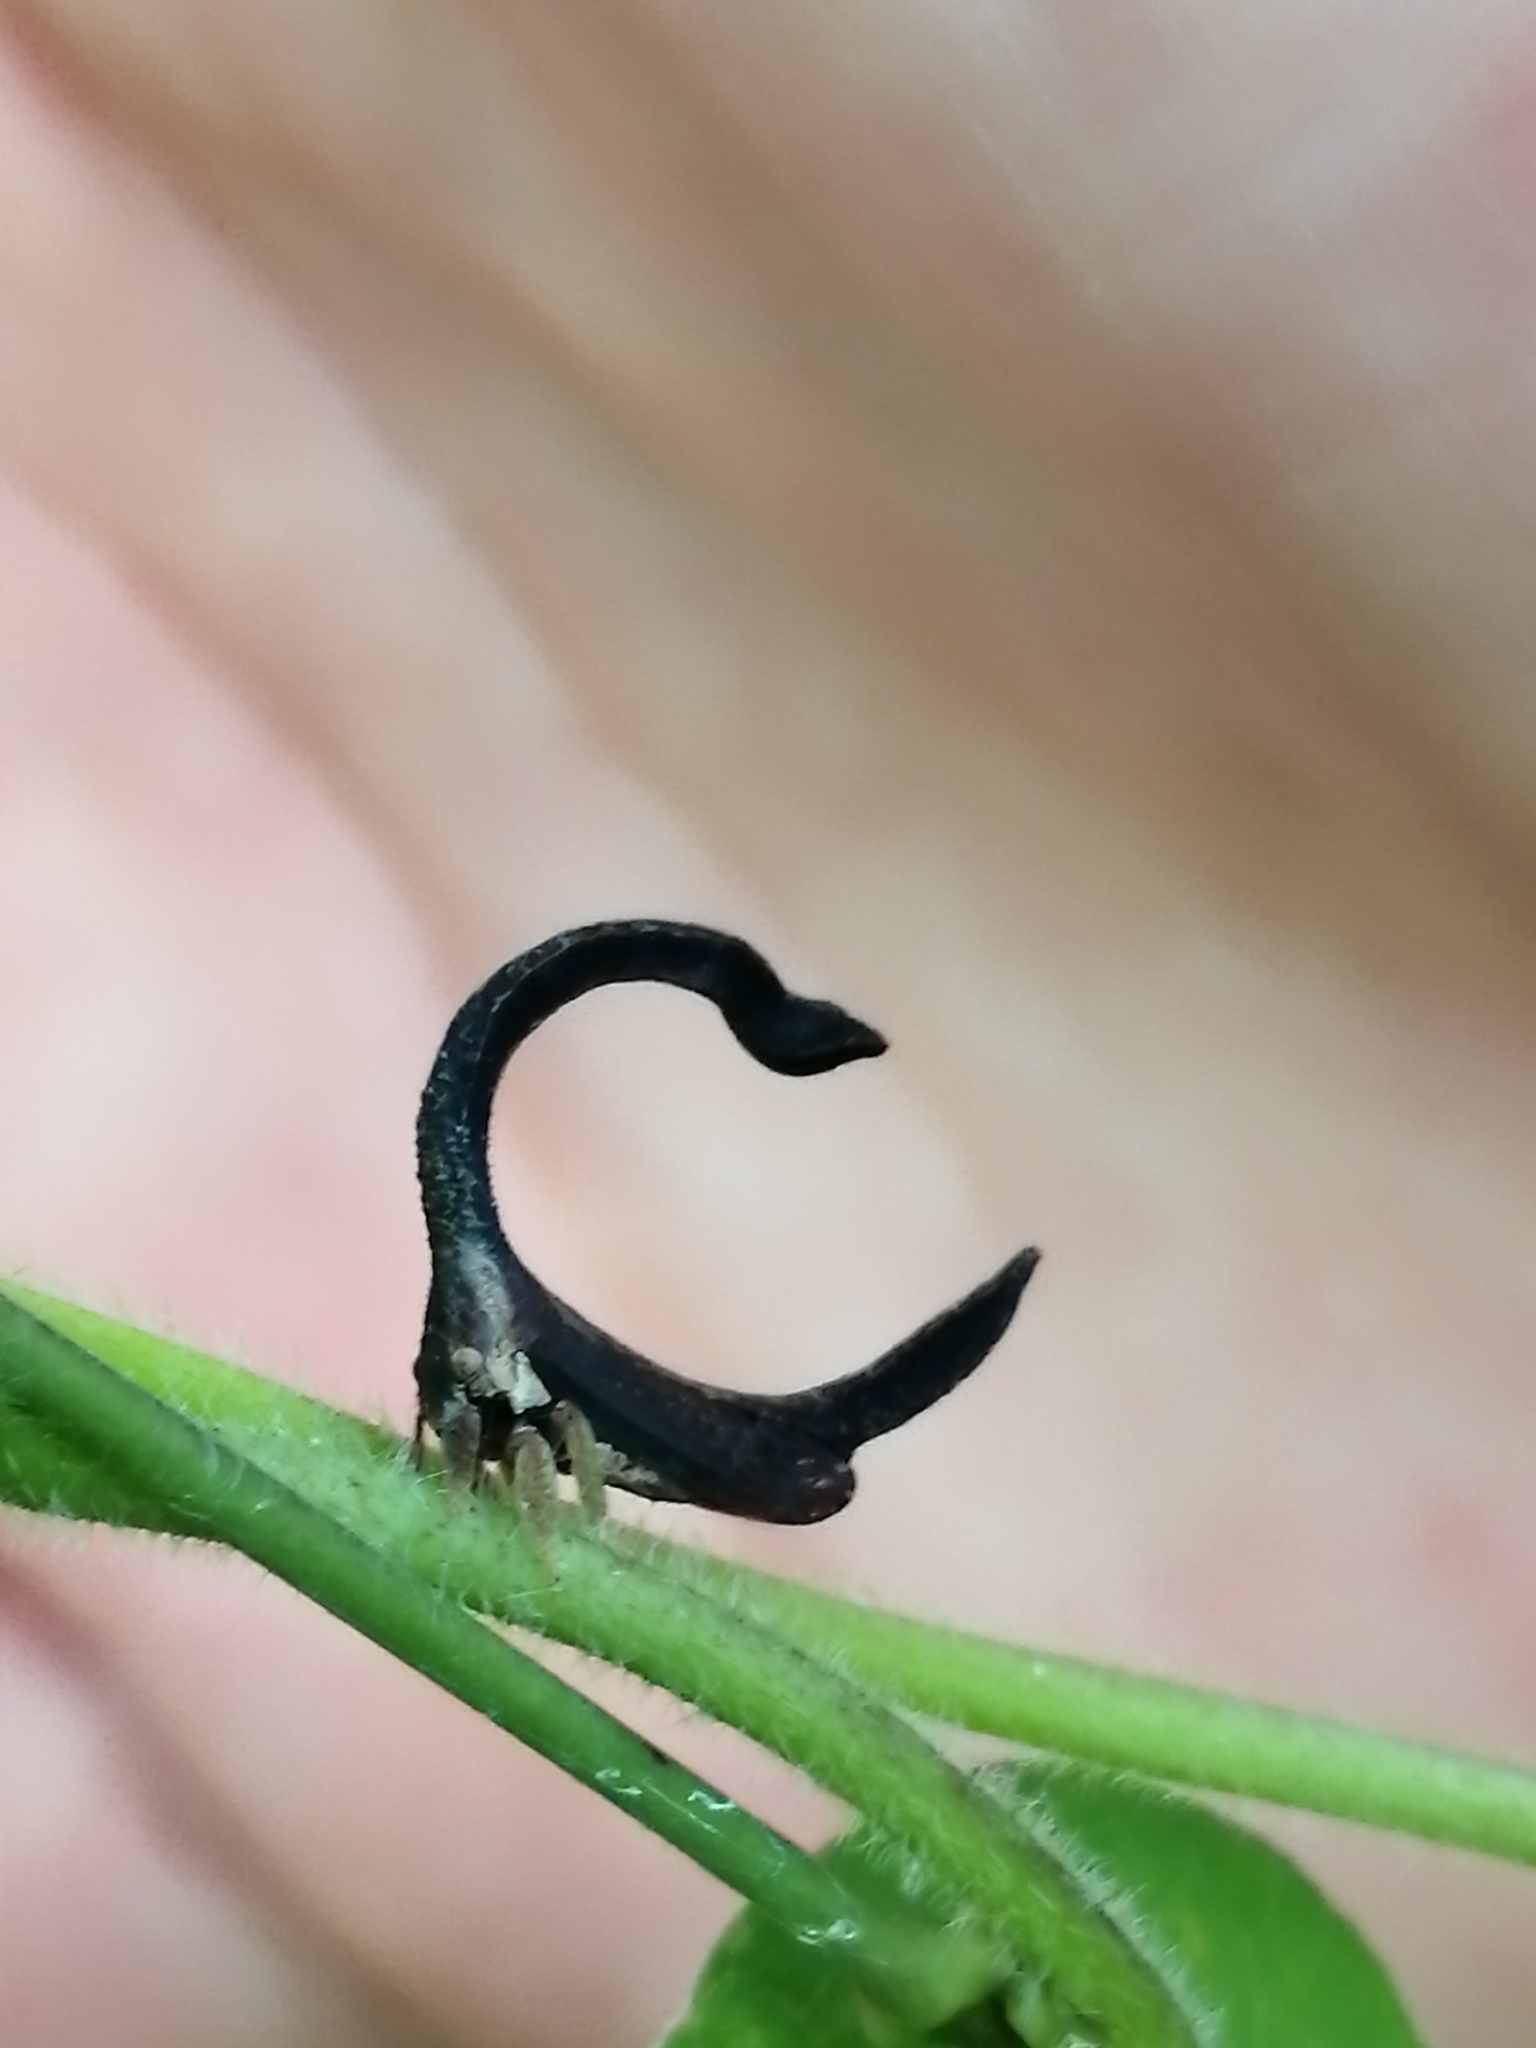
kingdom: Animalia
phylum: Arthropoda
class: Insecta
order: Hemiptera
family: Membracidae
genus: Cladonota
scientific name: Cladonota apicalis
